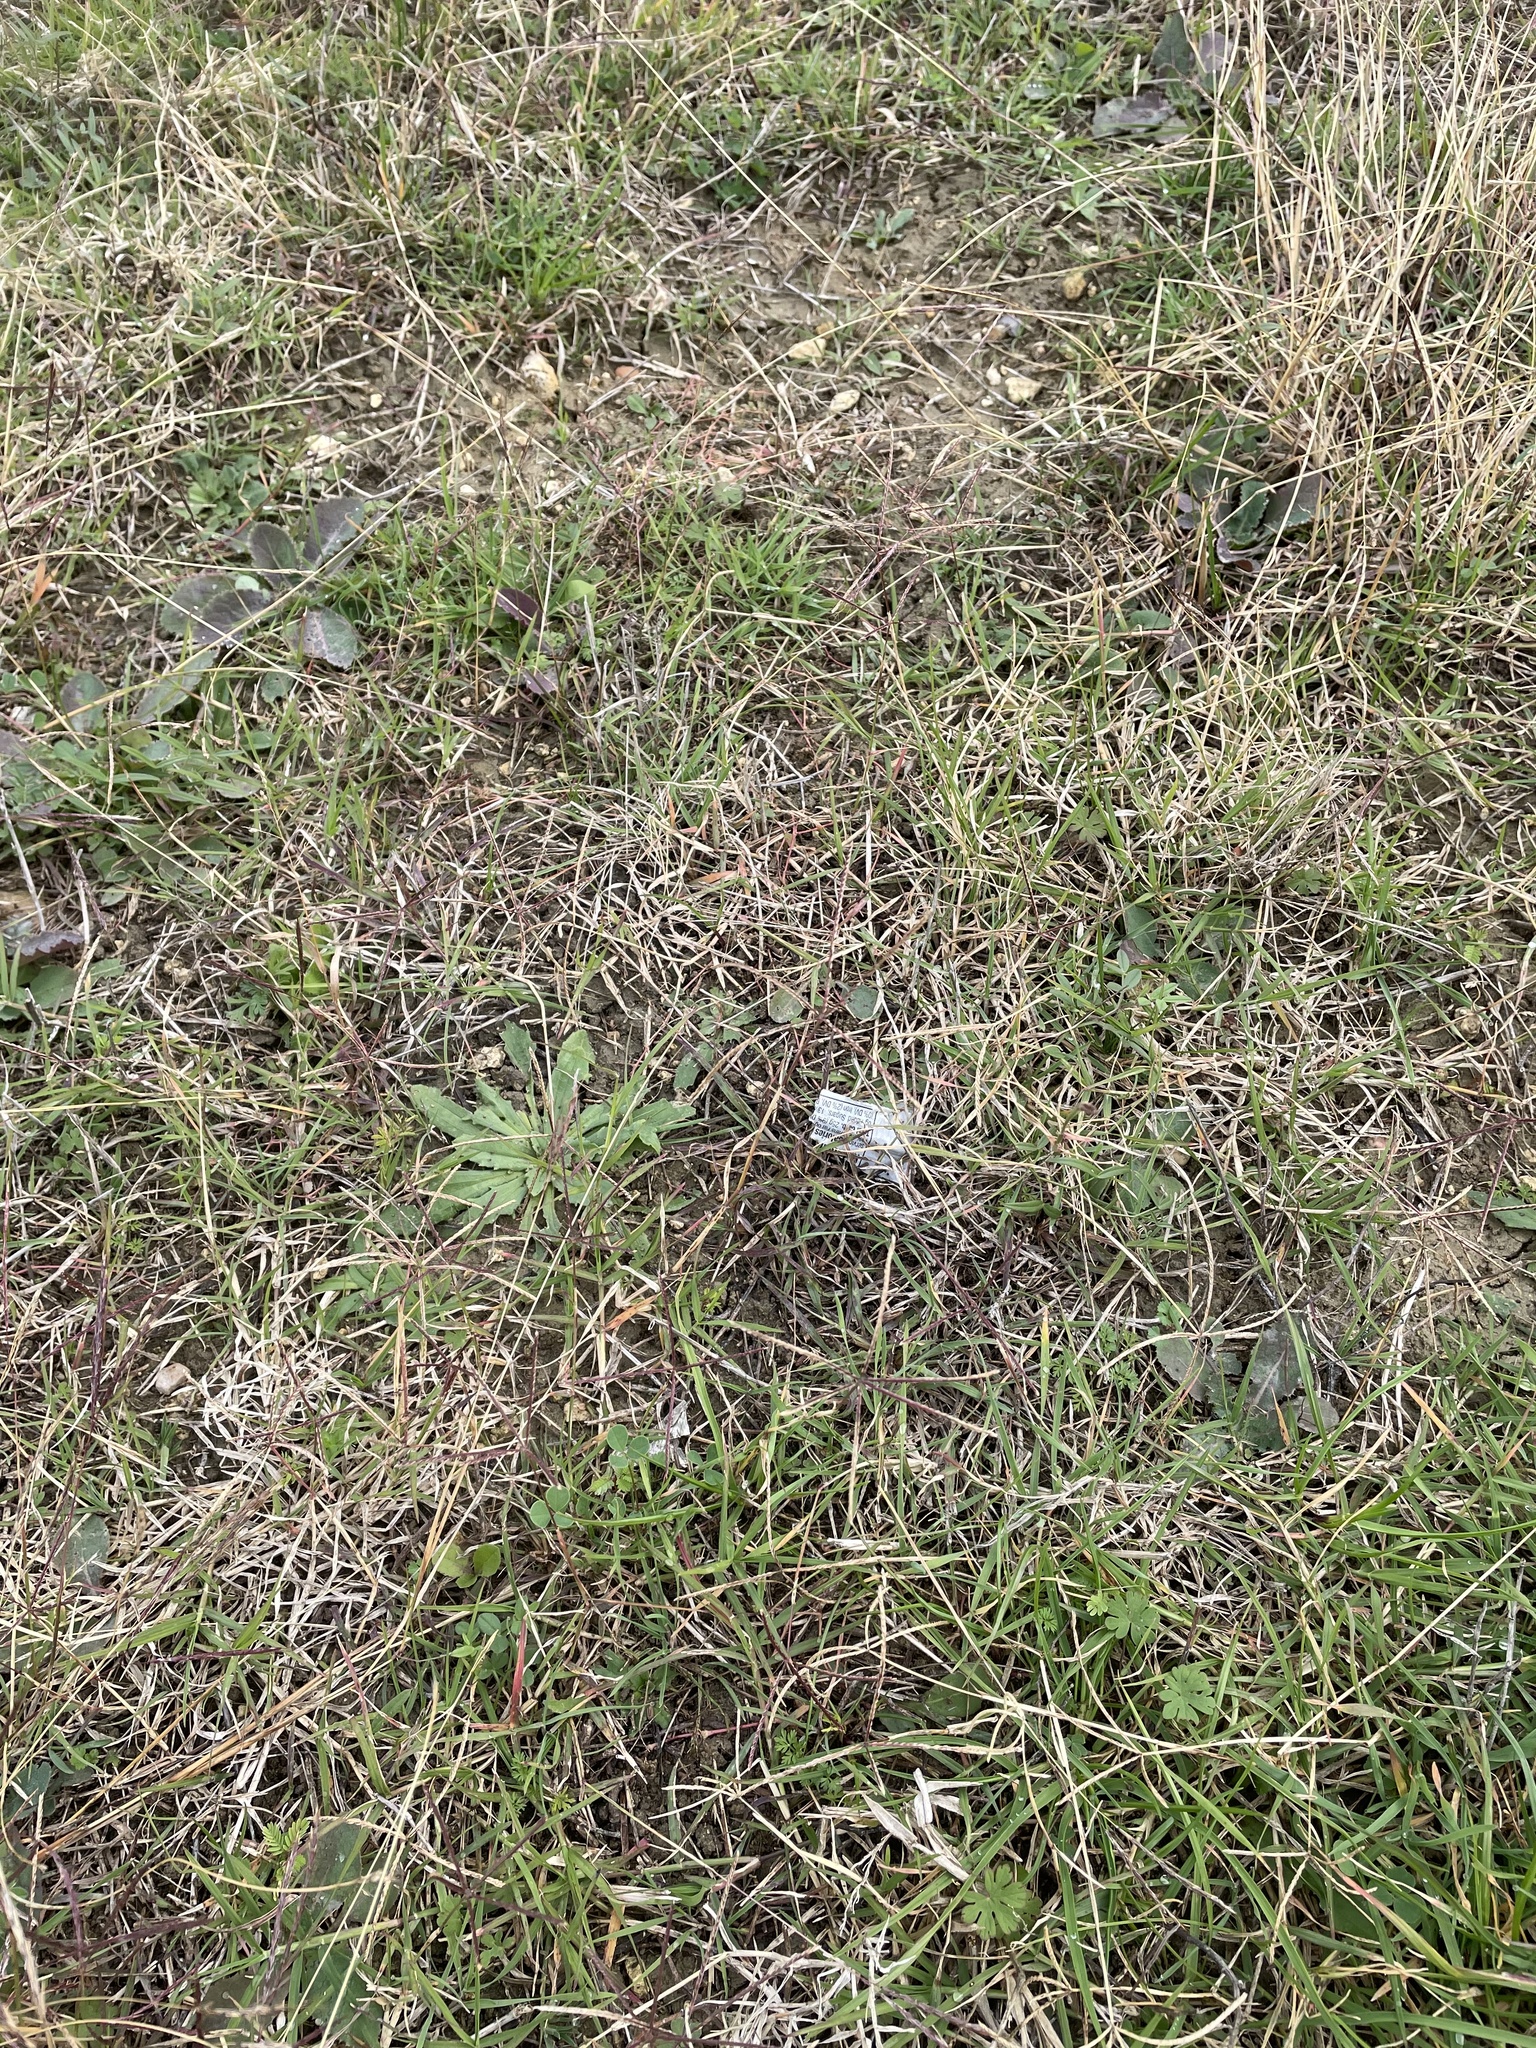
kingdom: Plantae
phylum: Tracheophyta
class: Liliopsida
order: Poales
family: Poaceae
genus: Cynodon
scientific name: Cynodon dactylon
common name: Bermuda grass
